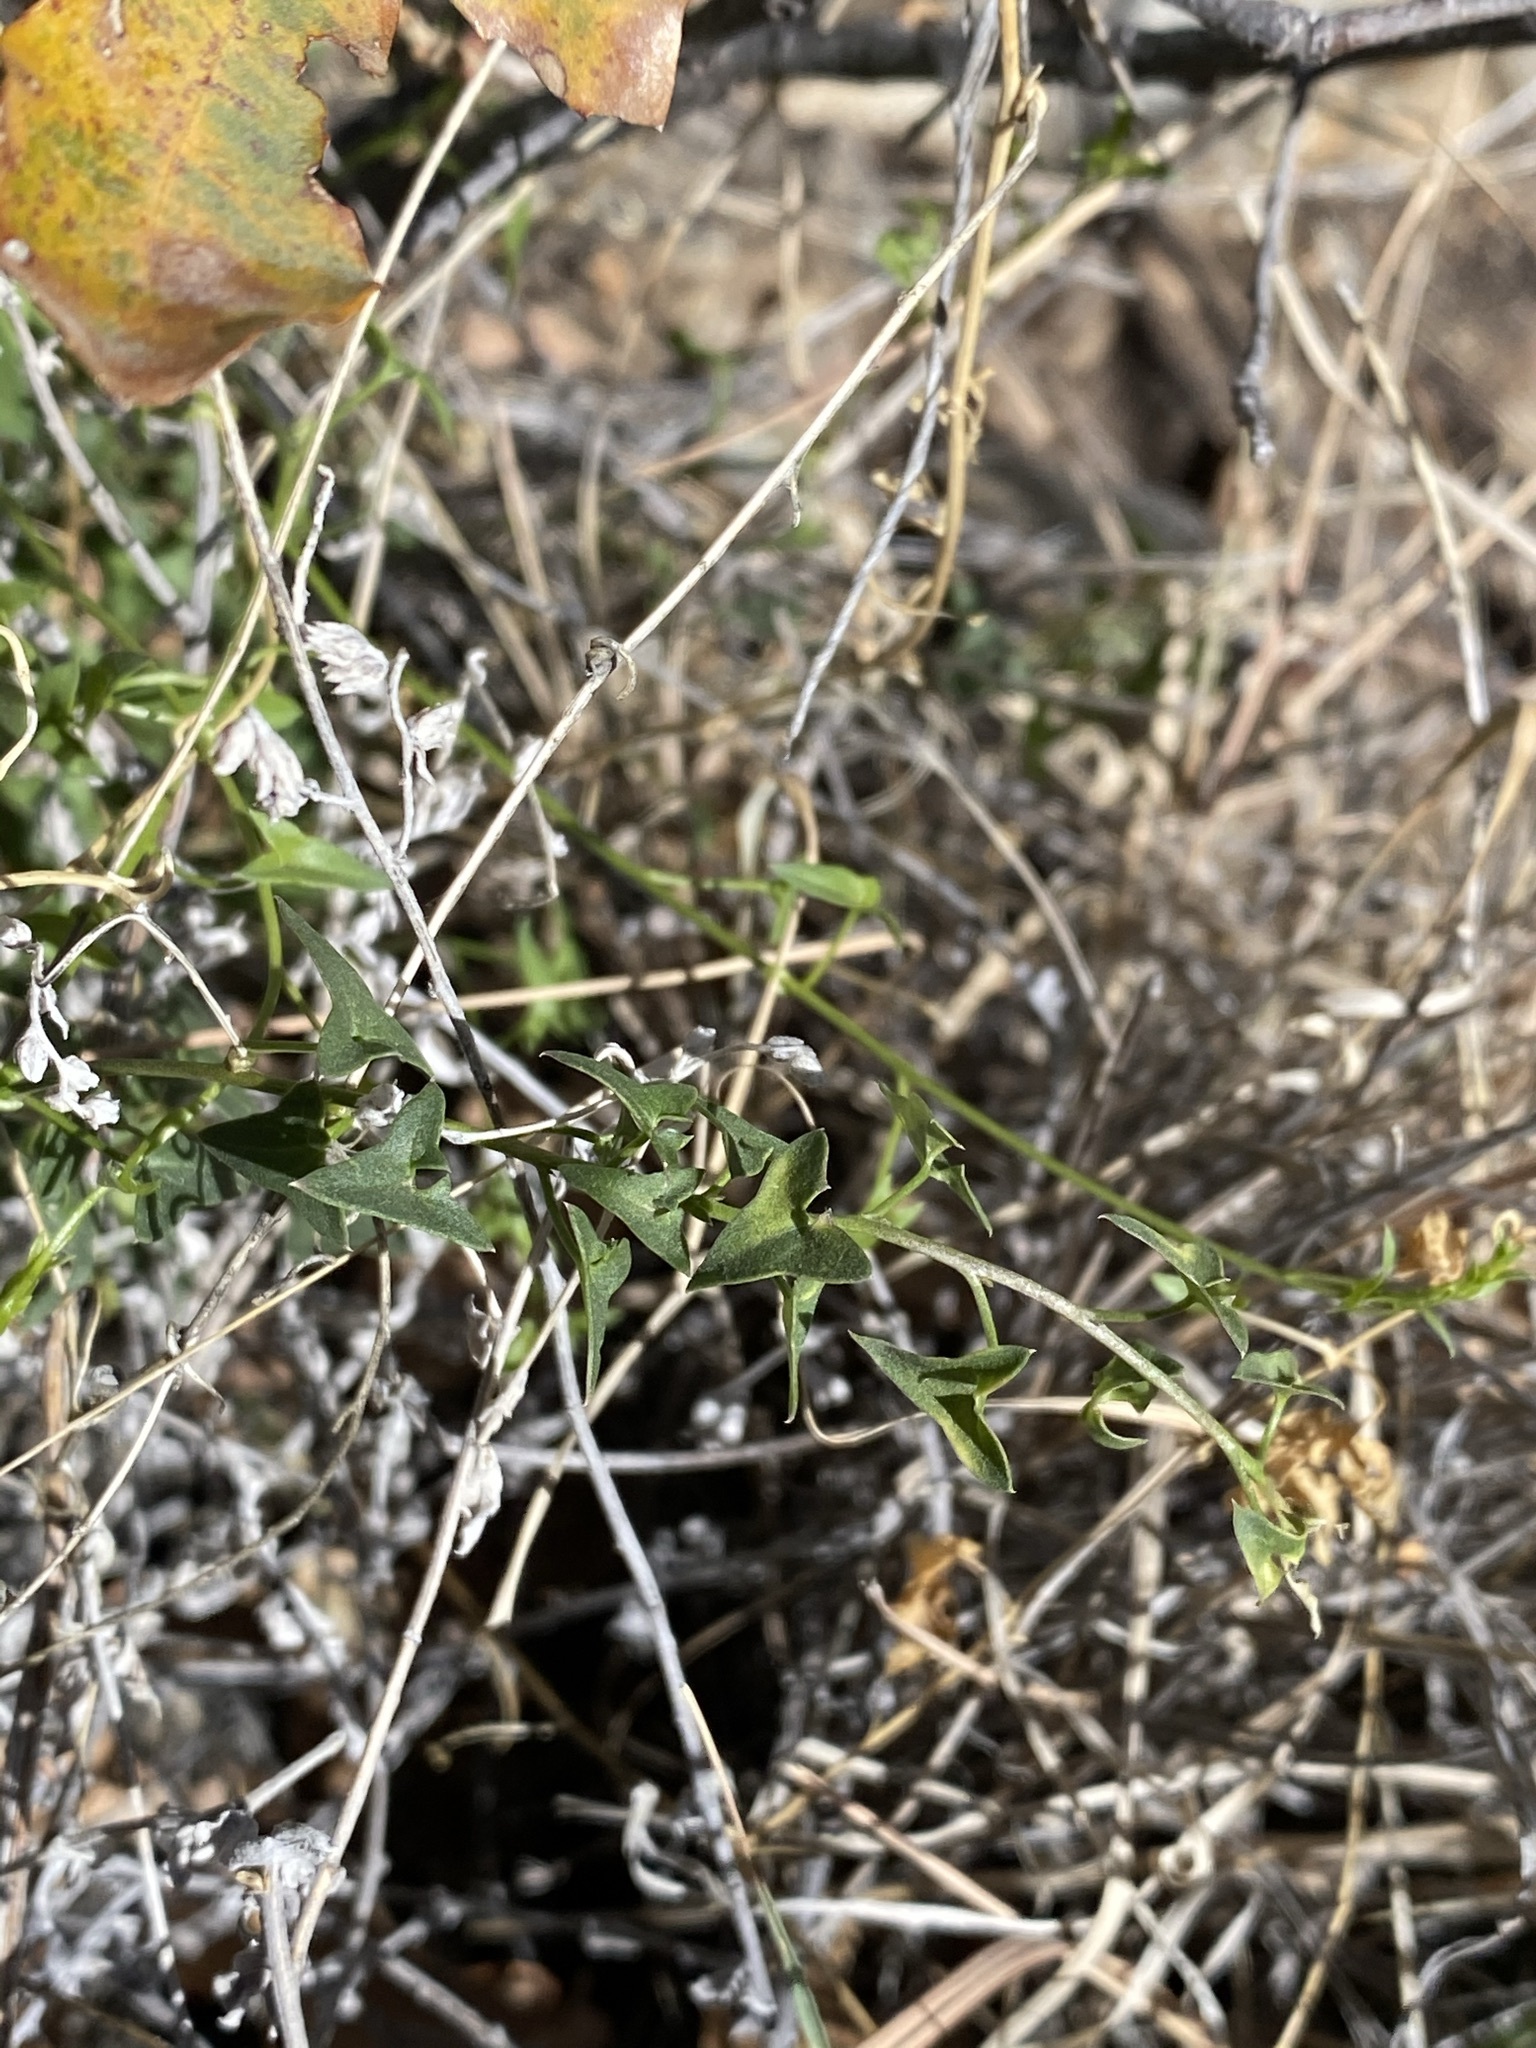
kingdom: Plantae
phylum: Tracheophyta
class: Magnoliopsida
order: Lamiales
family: Plantaginaceae
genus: Maurandella
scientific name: Maurandella antirrhiniflora
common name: Violet twining-snapdragon
